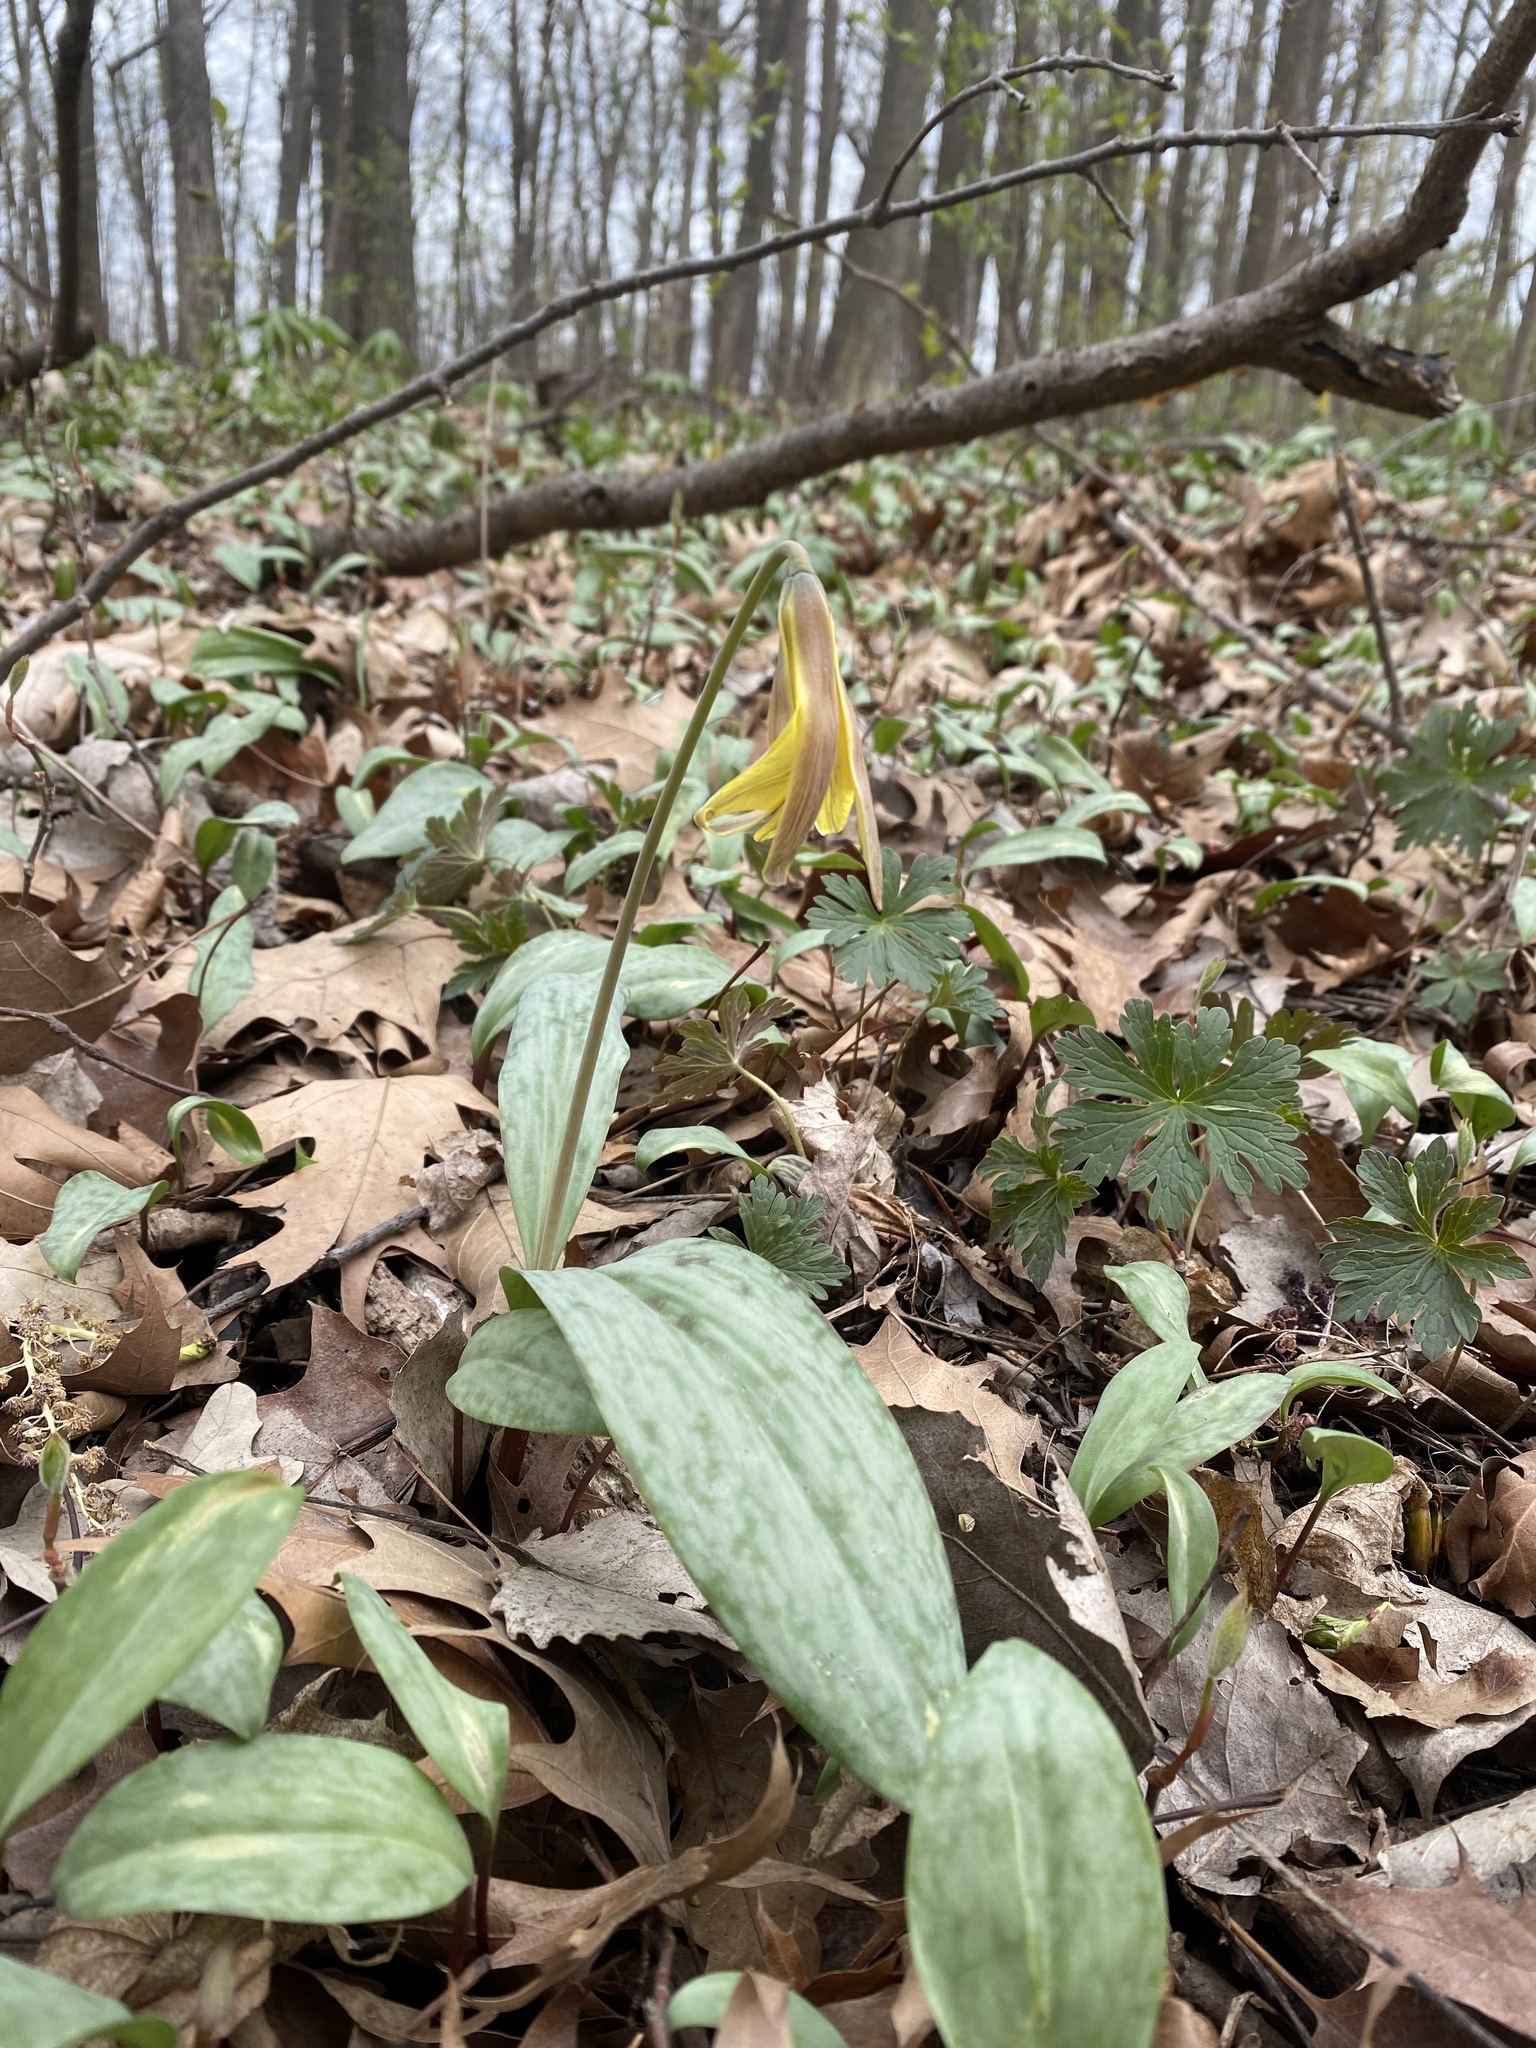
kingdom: Plantae
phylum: Tracheophyta
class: Liliopsida
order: Liliales
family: Liliaceae
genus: Erythronium
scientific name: Erythronium americanum
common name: Yellow adder's-tongue
